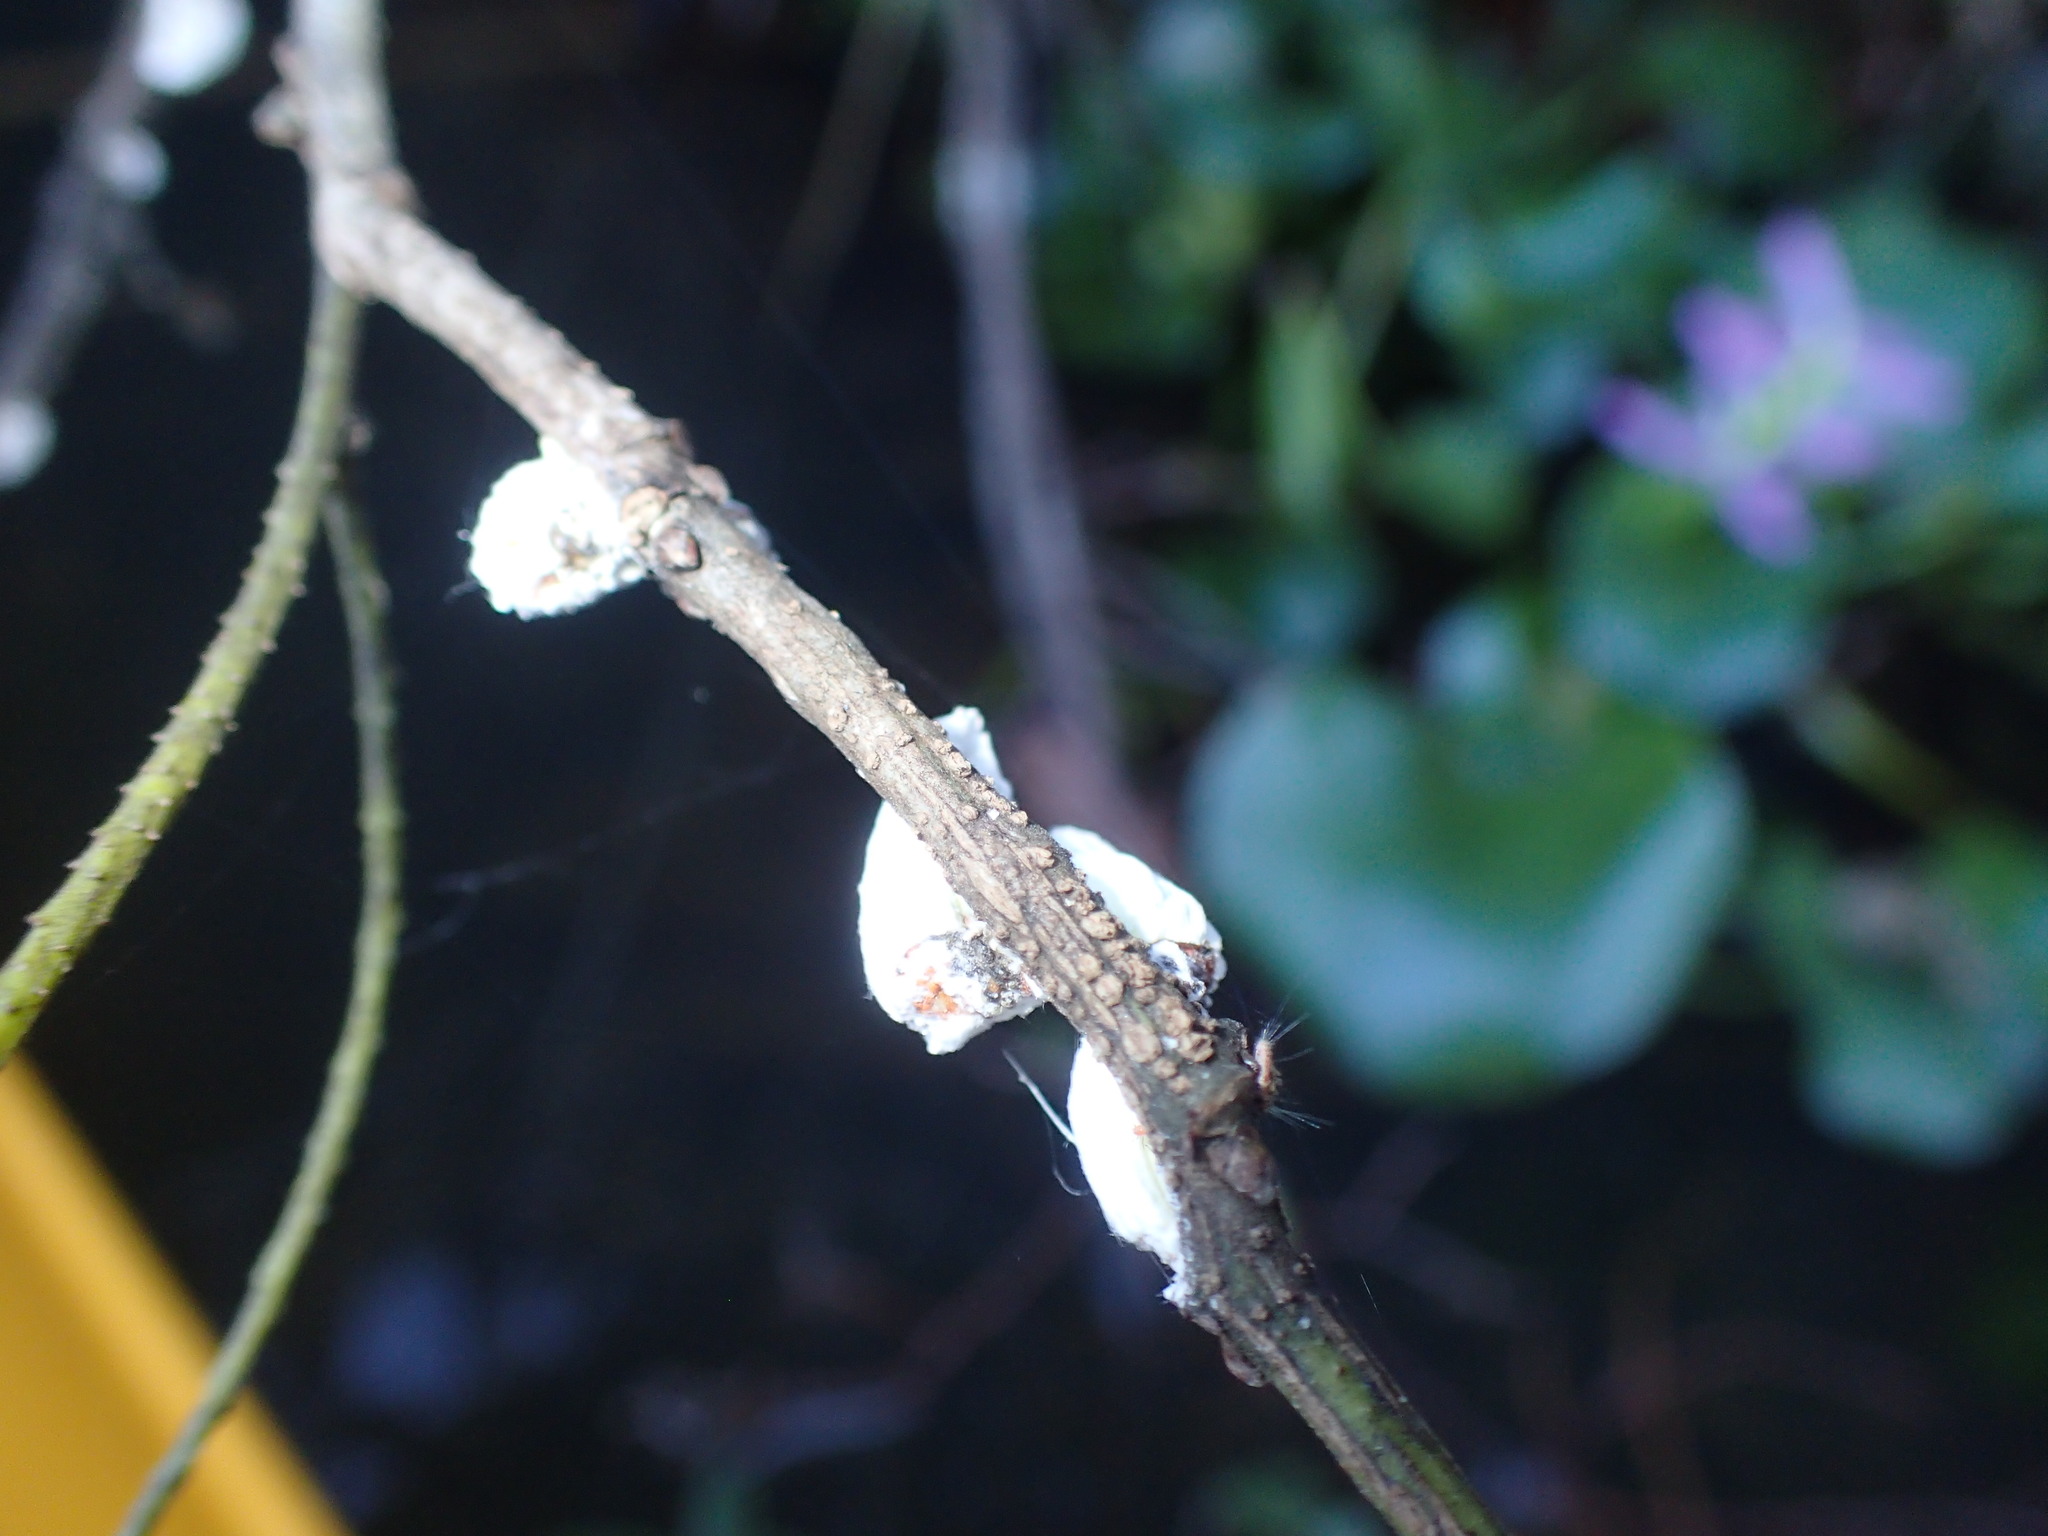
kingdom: Animalia
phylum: Arthropoda
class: Insecta
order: Hemiptera
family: Margarodidae
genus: Icerya
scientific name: Icerya purchasi
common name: Cottony cushion scale
